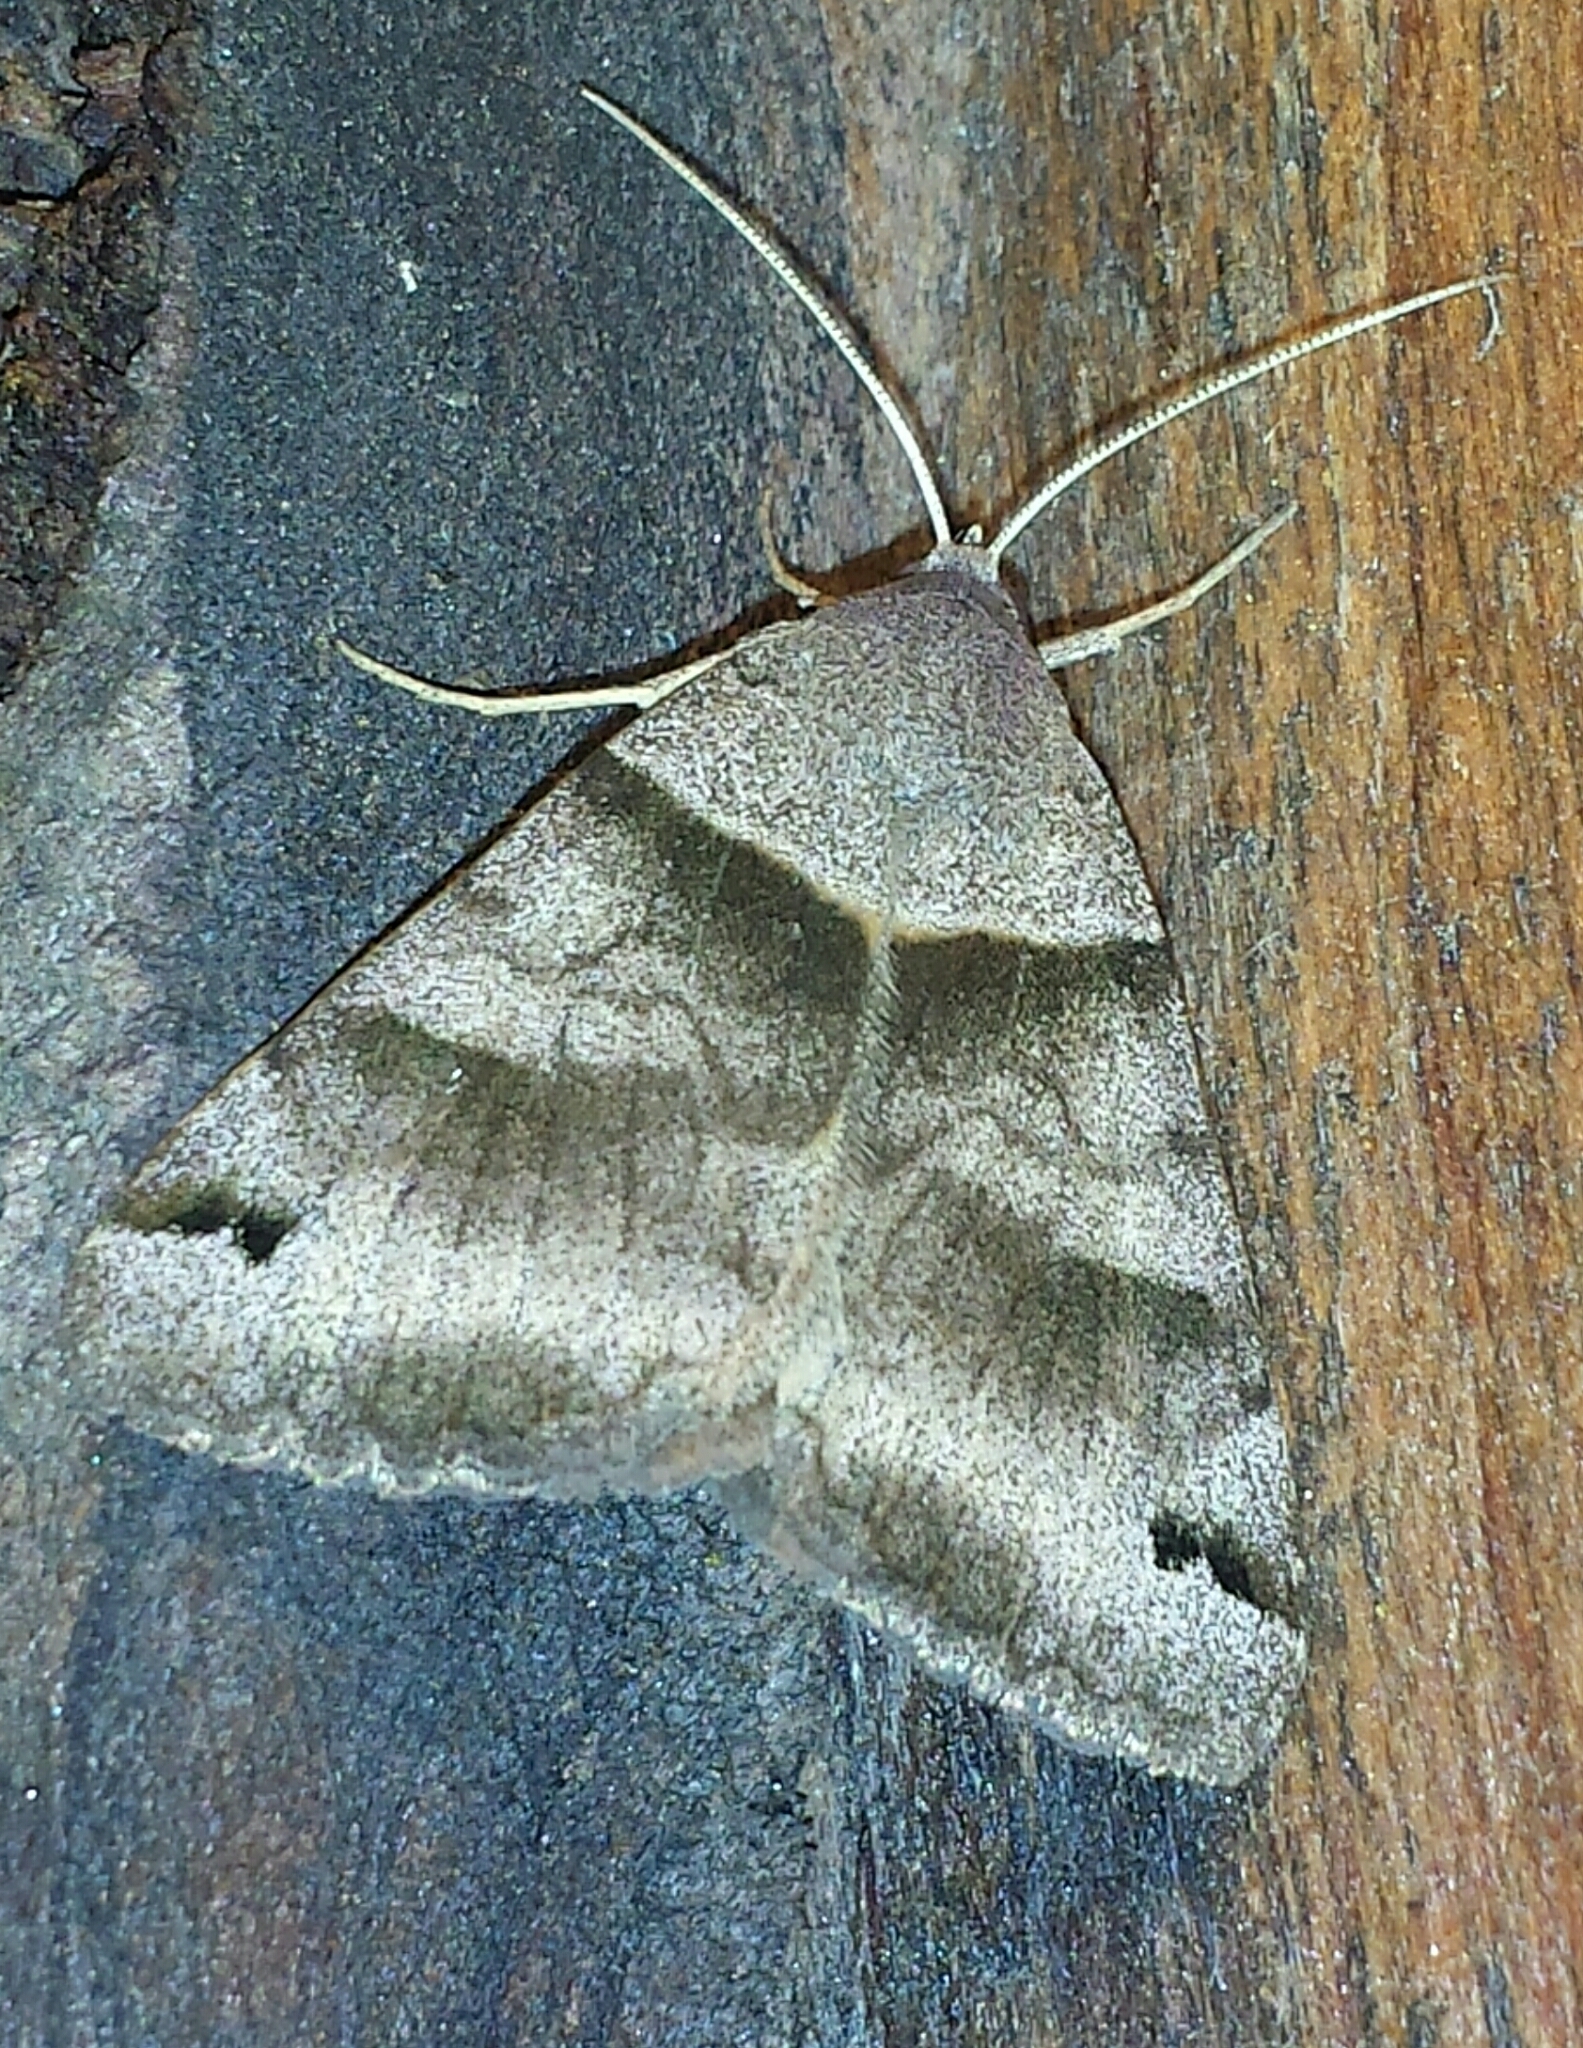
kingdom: Animalia
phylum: Arthropoda
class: Insecta
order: Lepidoptera
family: Erebidae
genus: Caenurgina
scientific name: Caenurgina crassiuscula
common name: Double-barred
